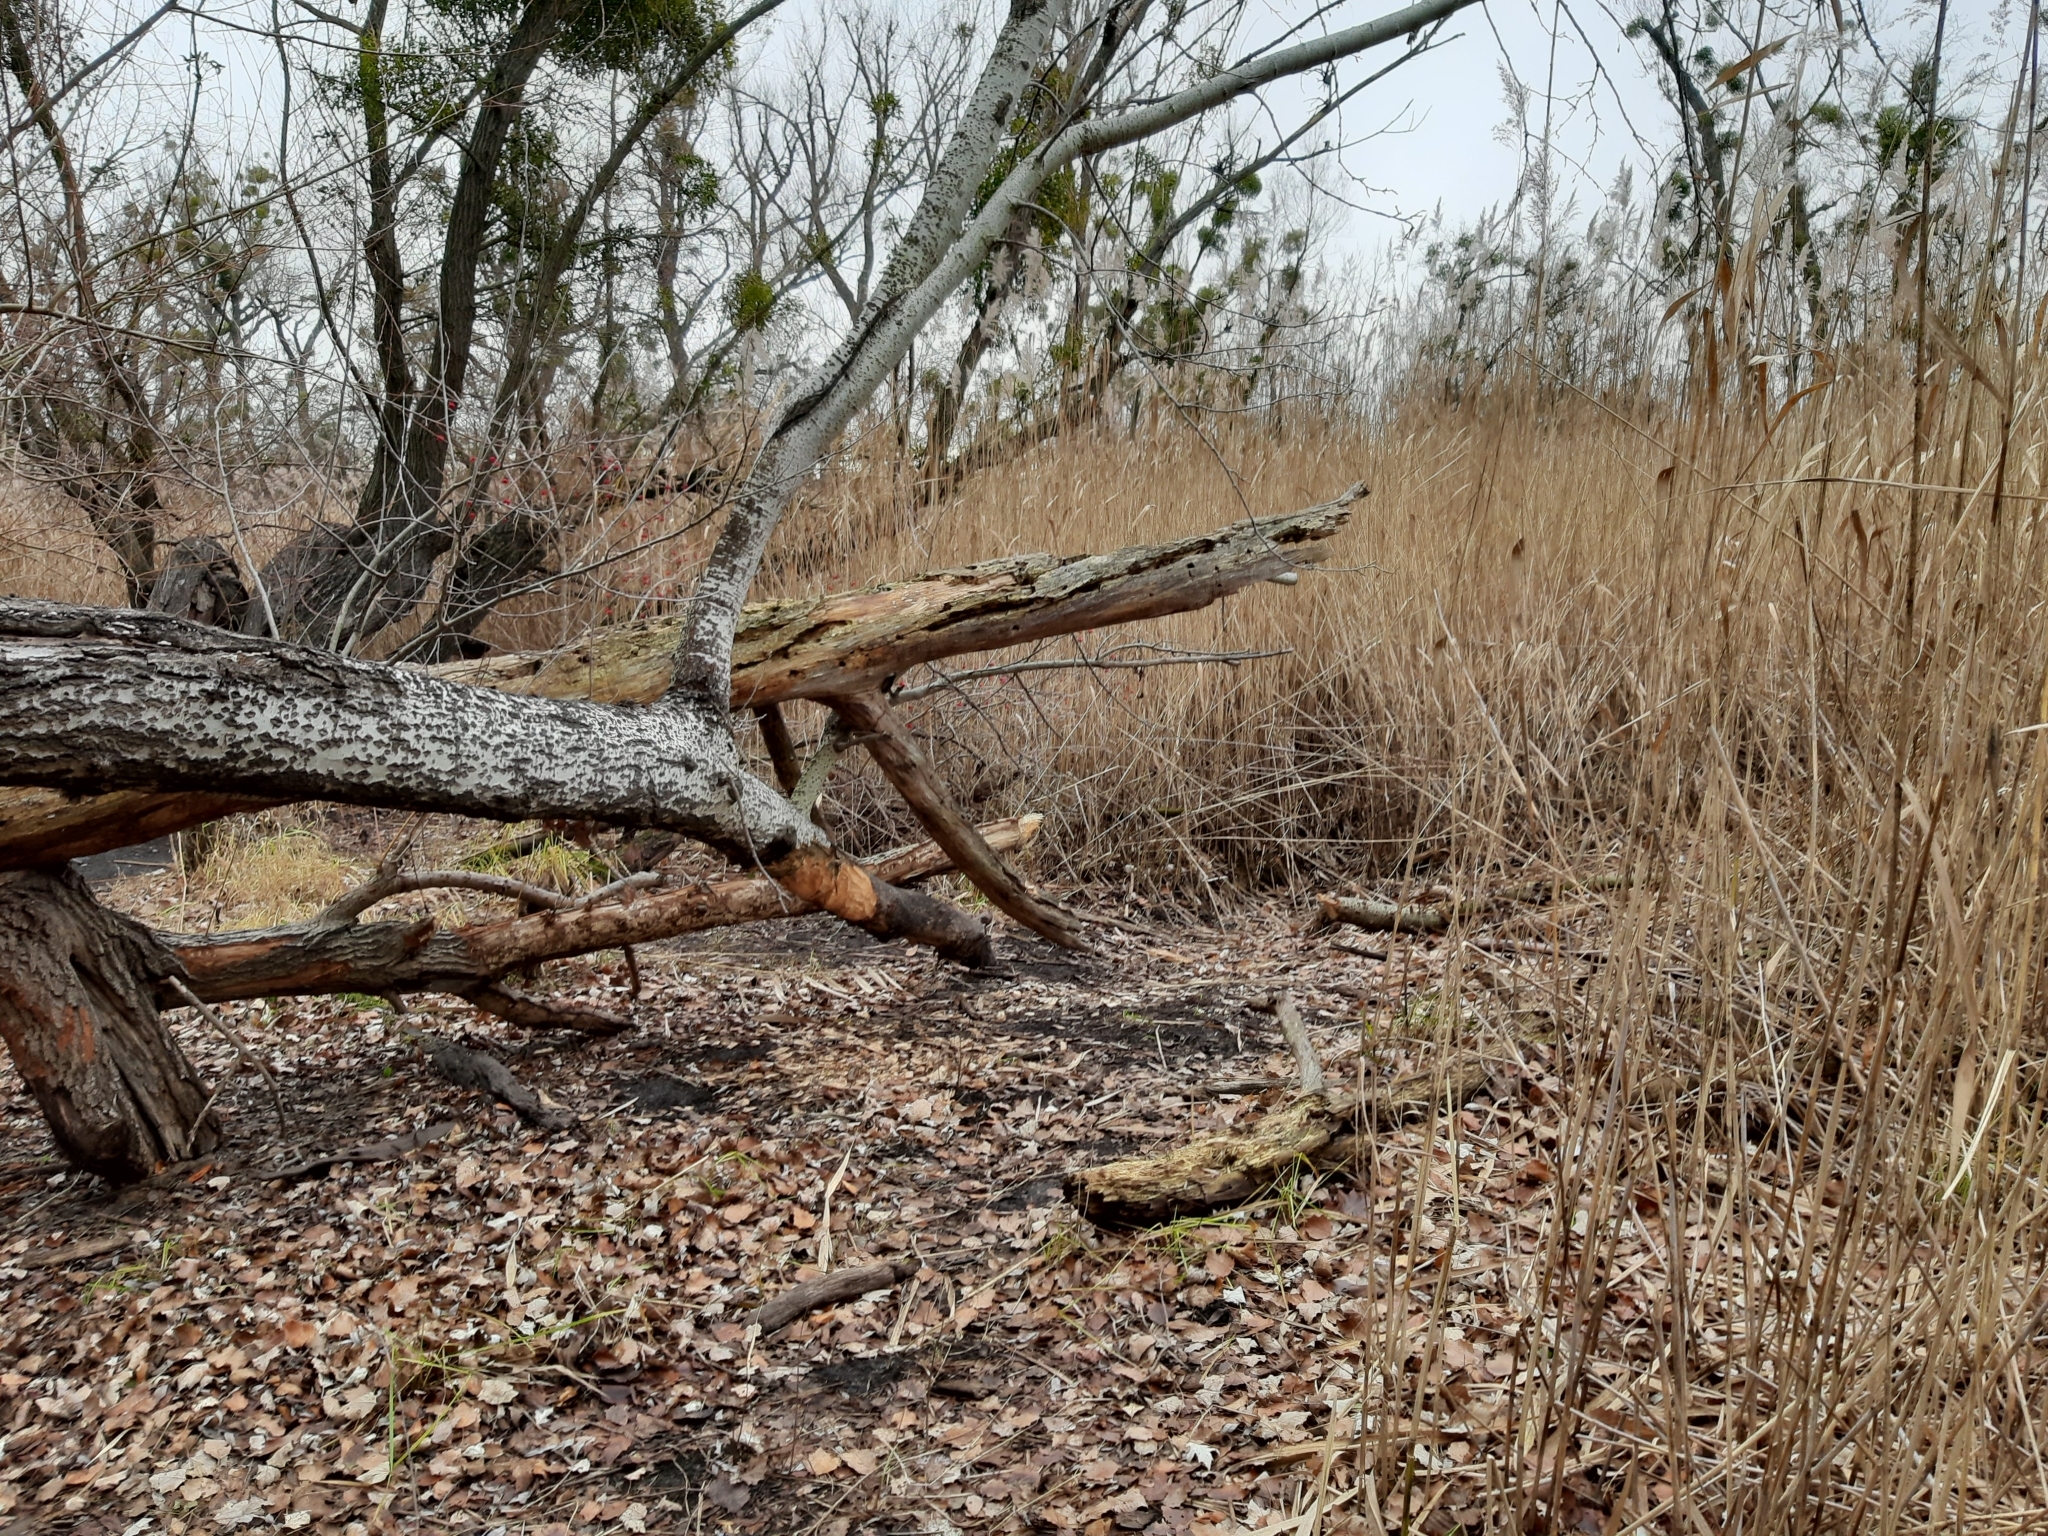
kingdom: Animalia
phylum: Chordata
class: Mammalia
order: Rodentia
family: Castoridae
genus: Castor
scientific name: Castor fiber
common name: Eurasian beaver
